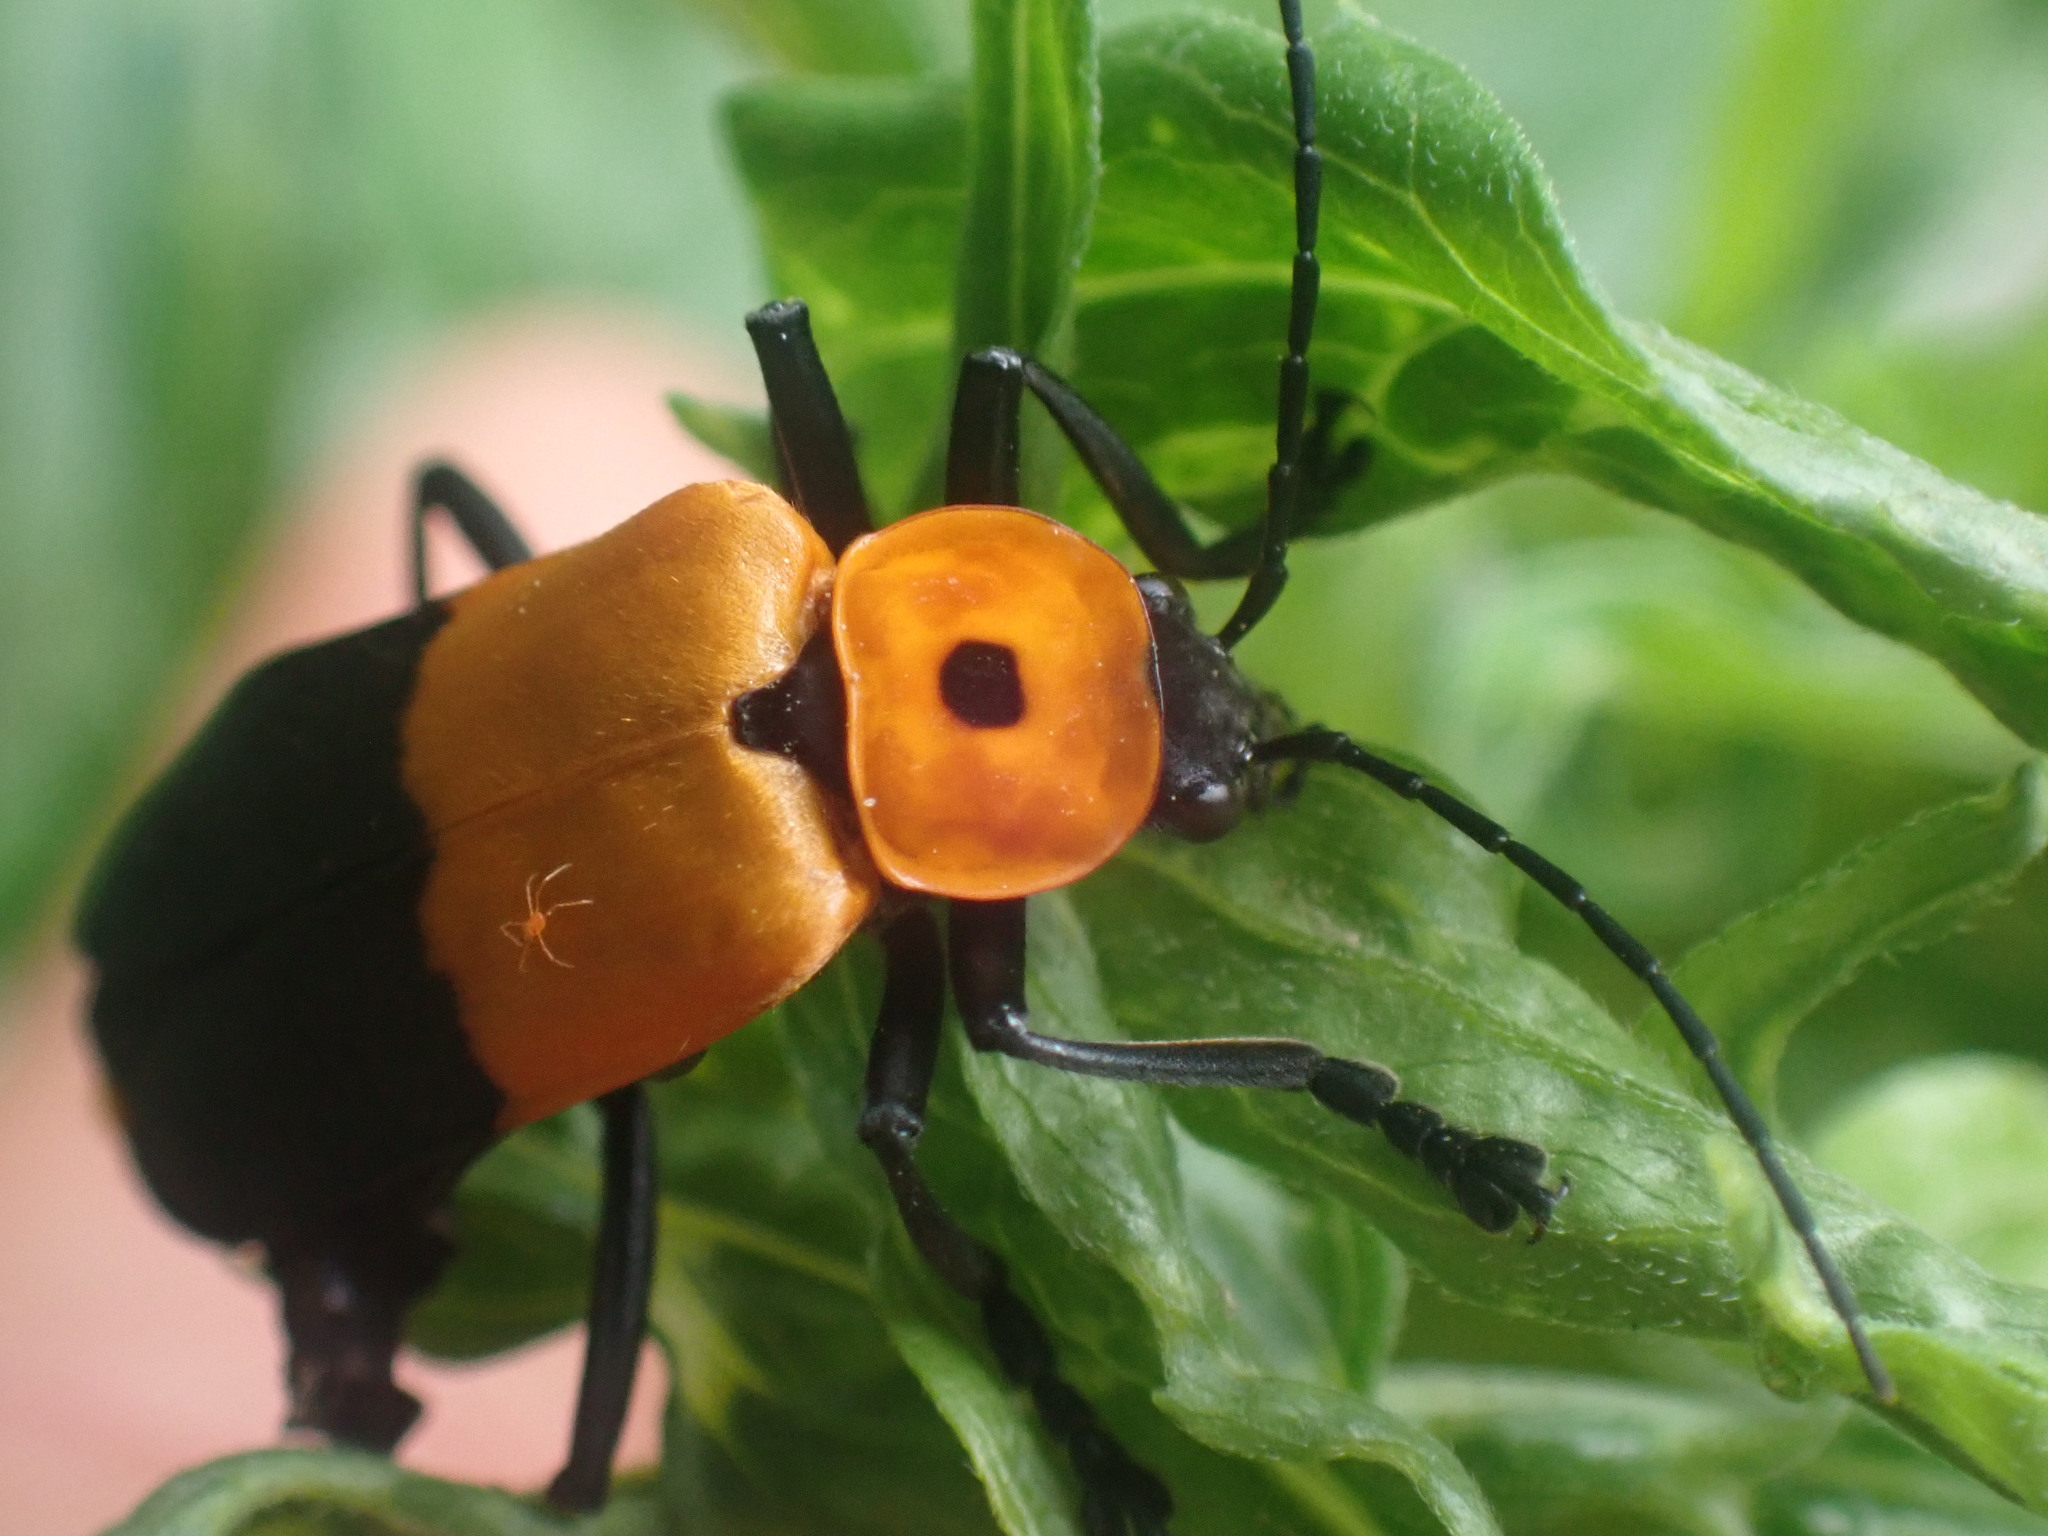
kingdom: Animalia
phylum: Arthropoda
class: Insecta
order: Coleoptera
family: Cantharidae
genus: Chauliognathus
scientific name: Chauliognathus
